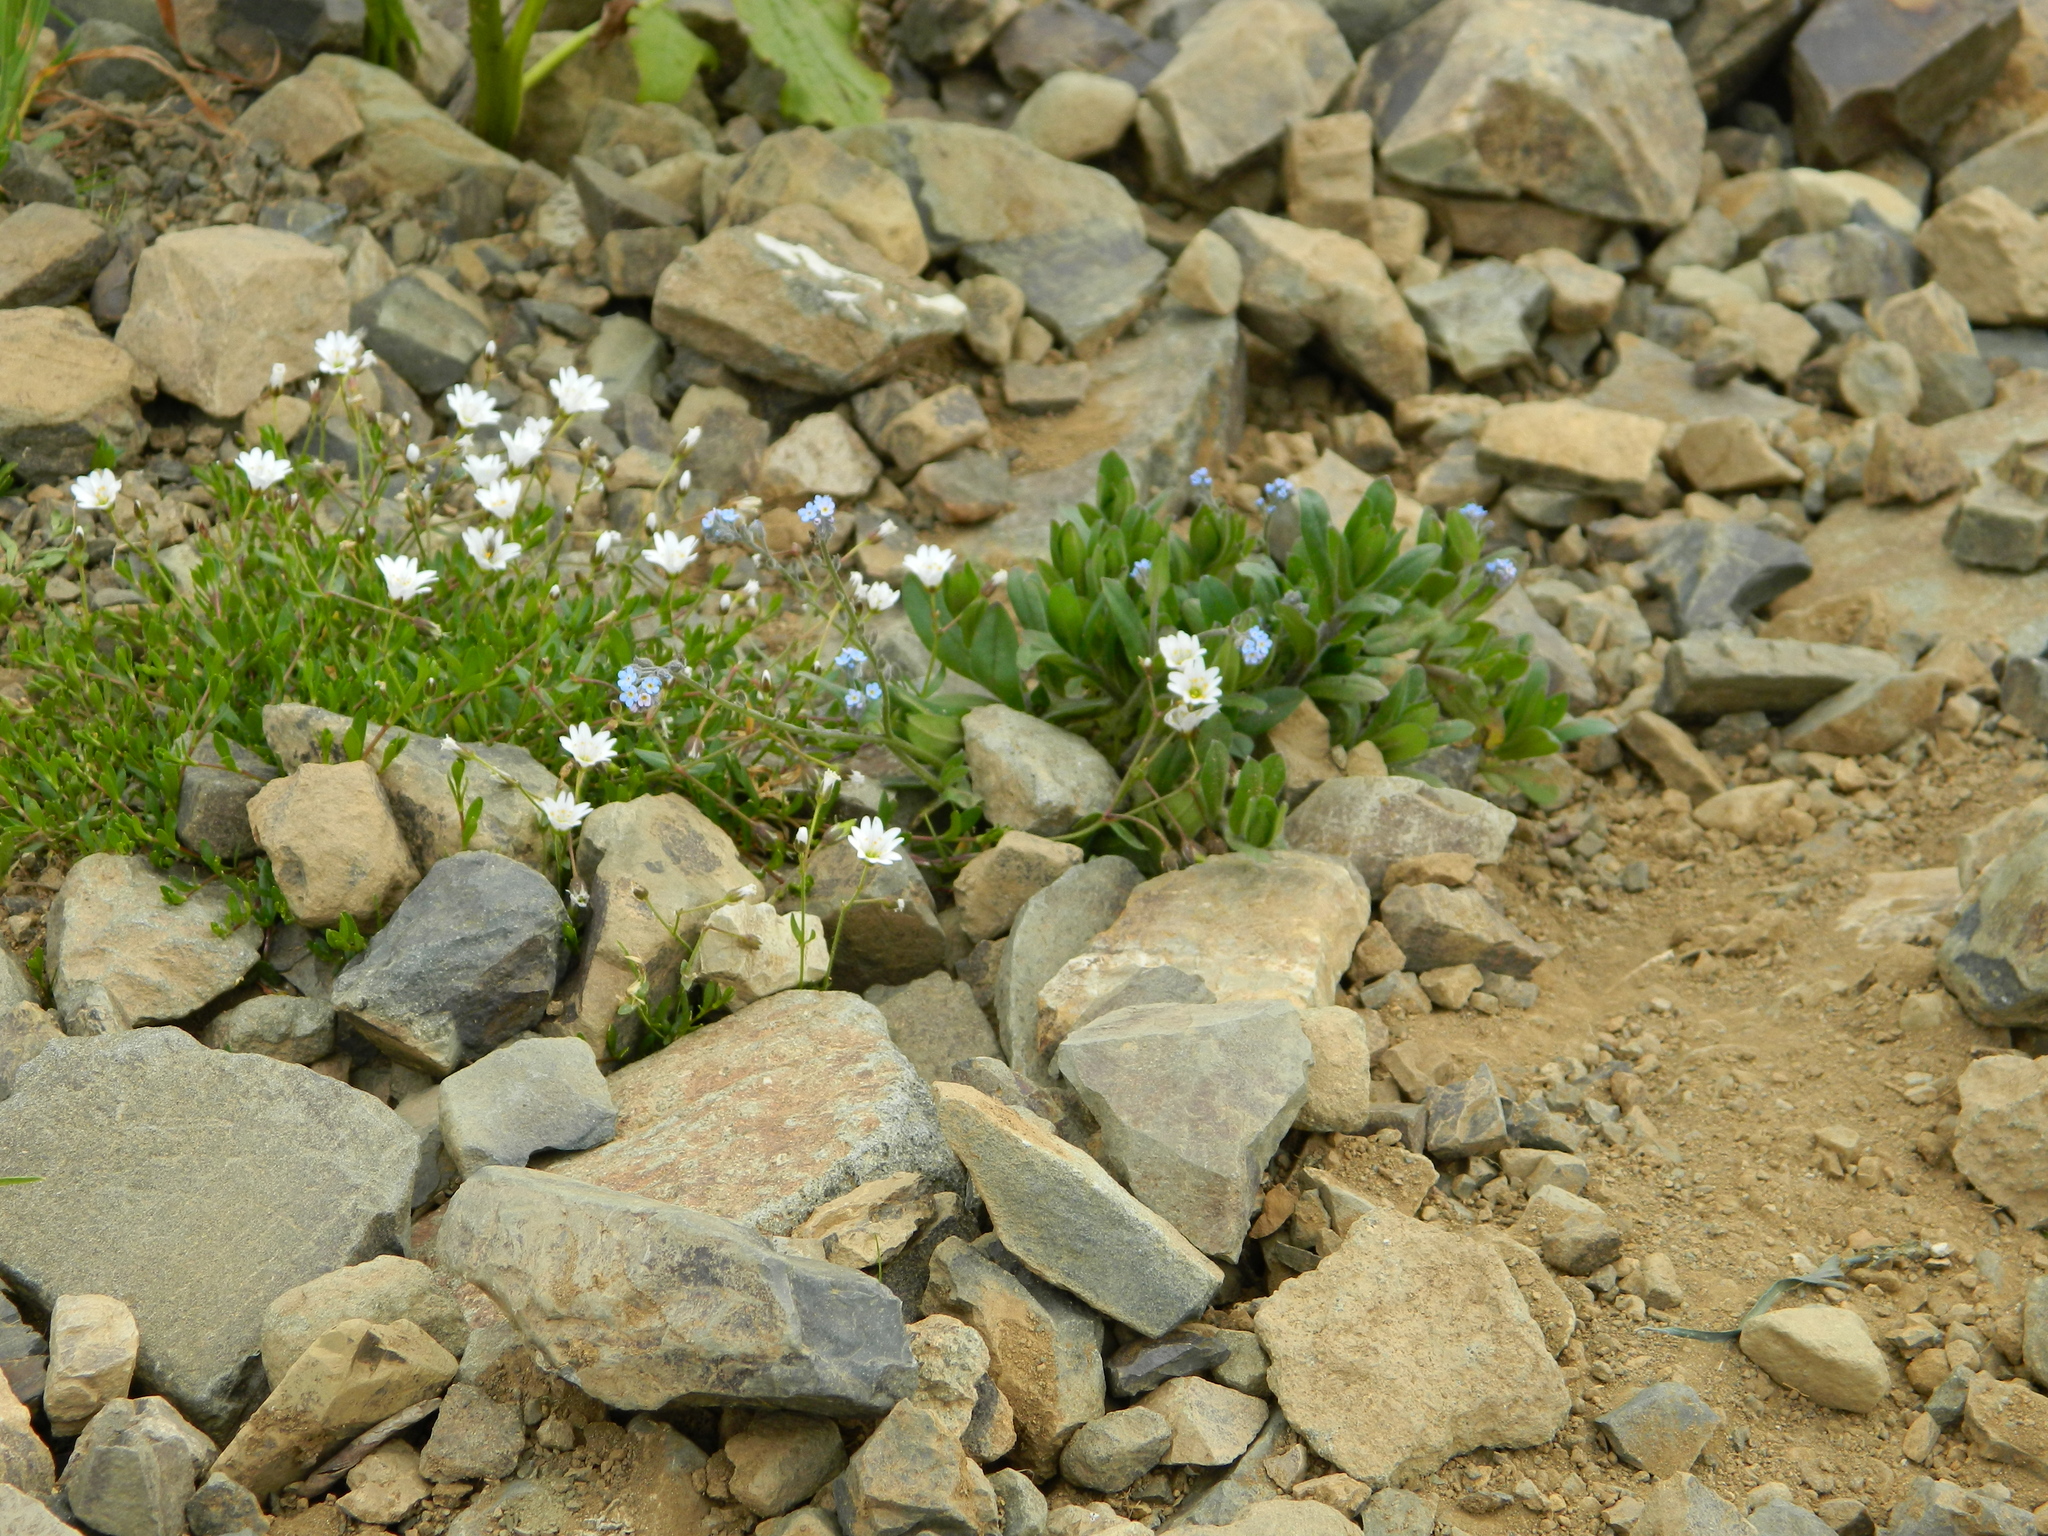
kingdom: Plantae
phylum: Tracheophyta
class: Magnoliopsida
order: Caryophyllales
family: Caryophyllaceae
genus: Dichodon
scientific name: Dichodon cerastoides
